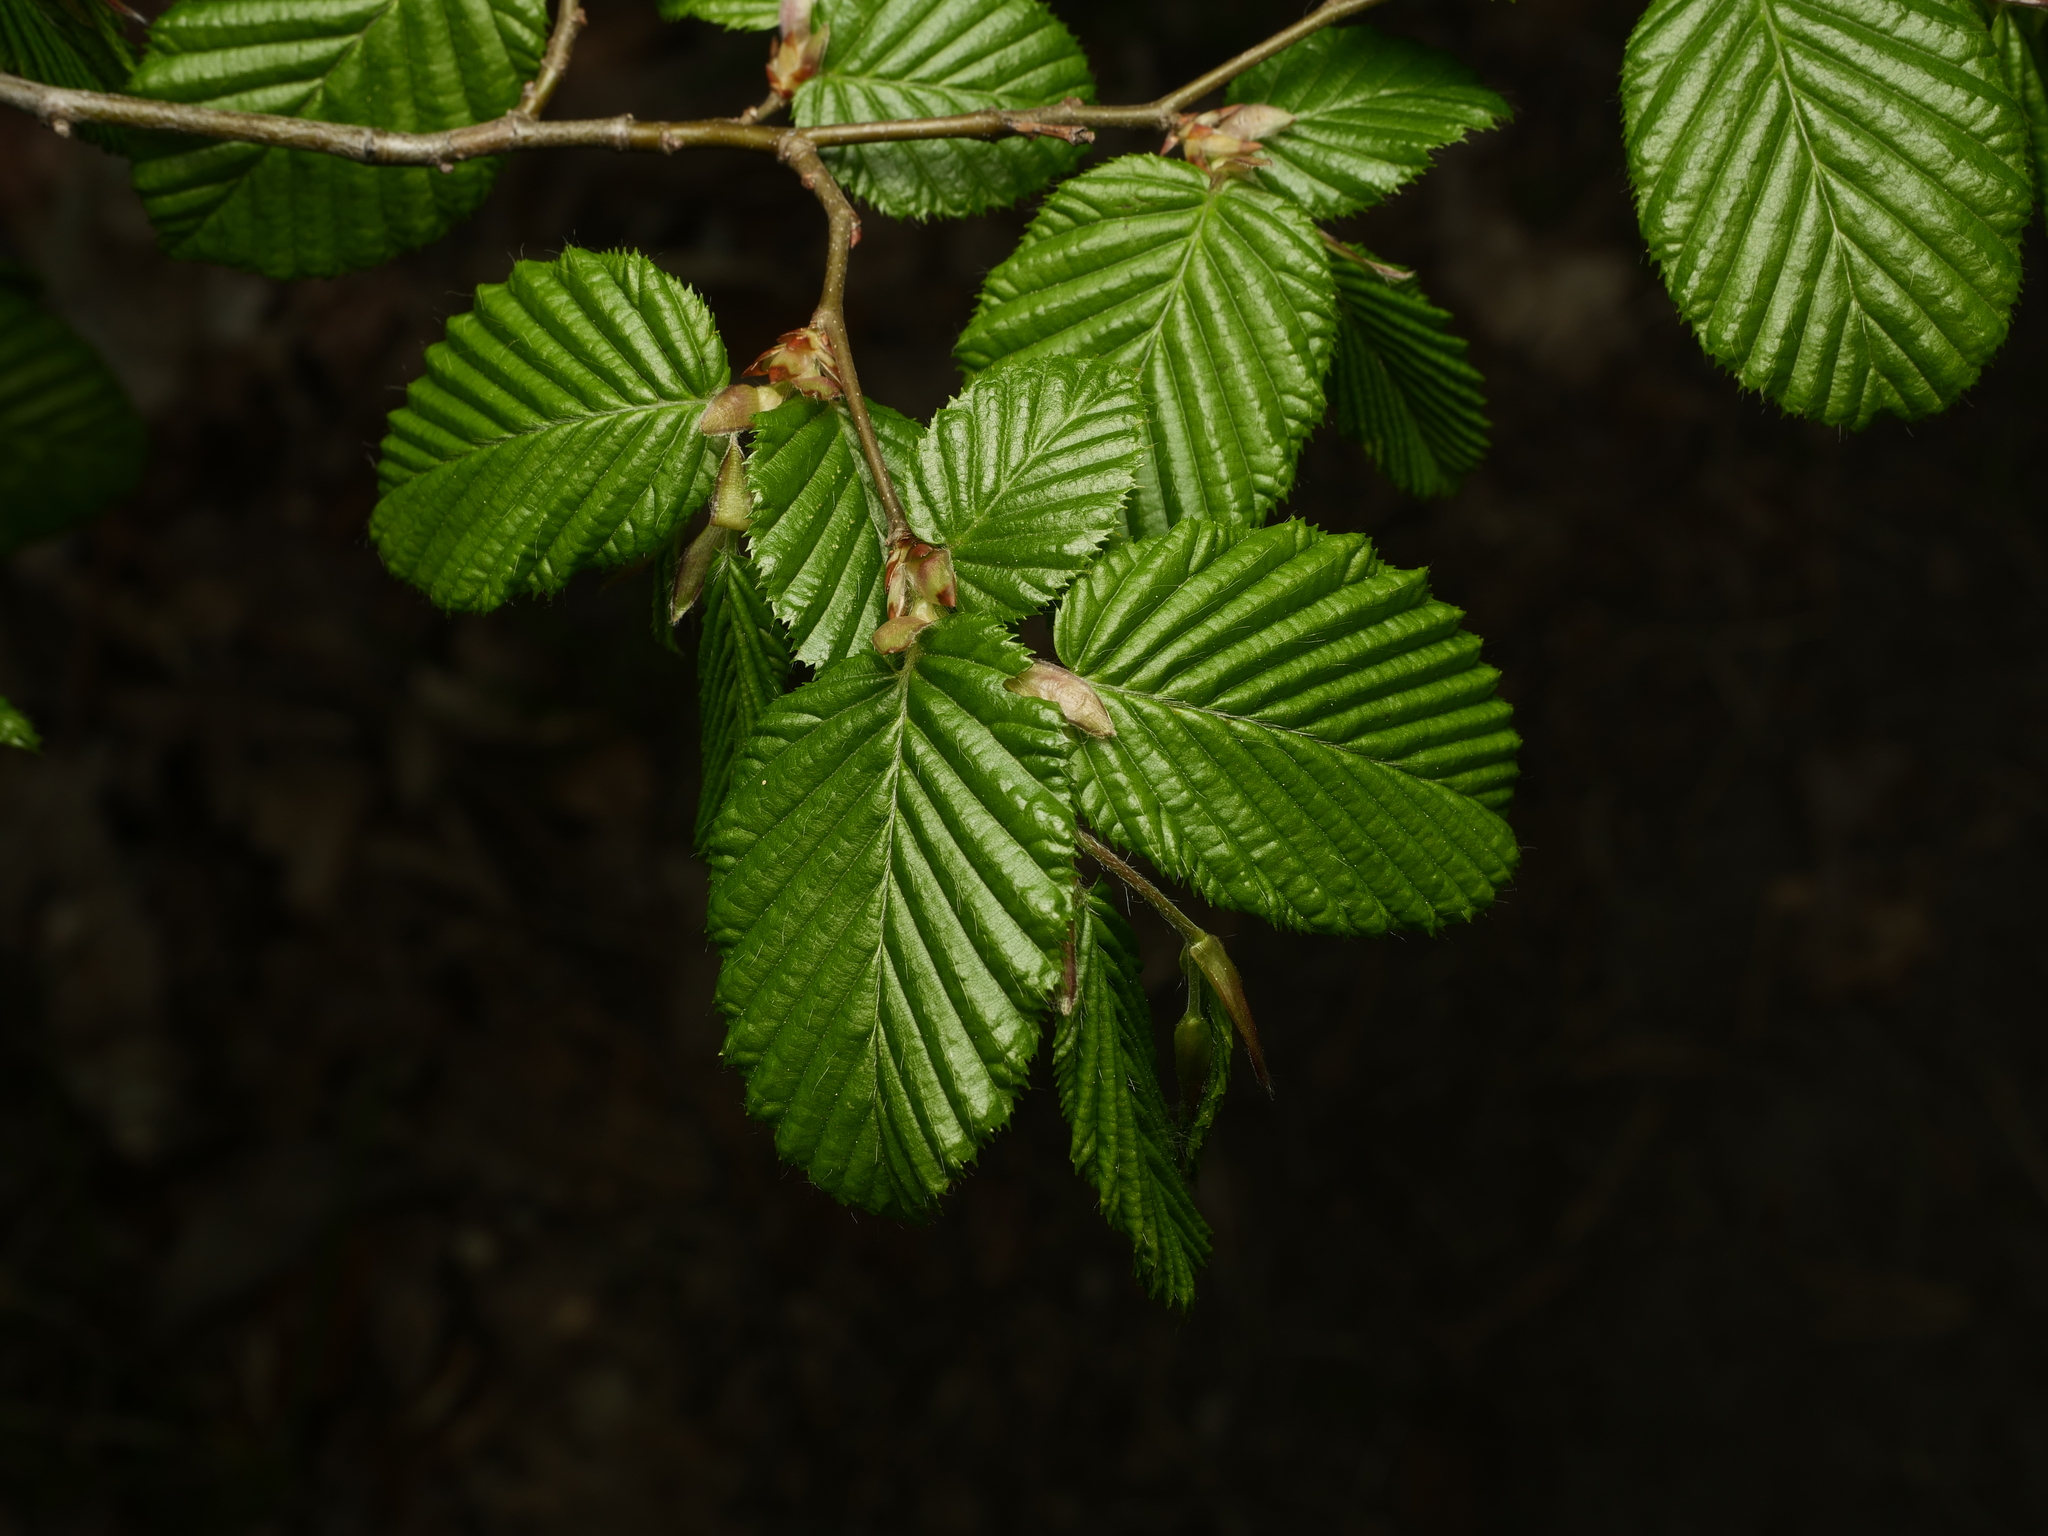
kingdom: Plantae
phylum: Tracheophyta
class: Magnoliopsida
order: Fagales
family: Betulaceae
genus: Carpinus
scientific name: Carpinus betulus
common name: Hornbeam
